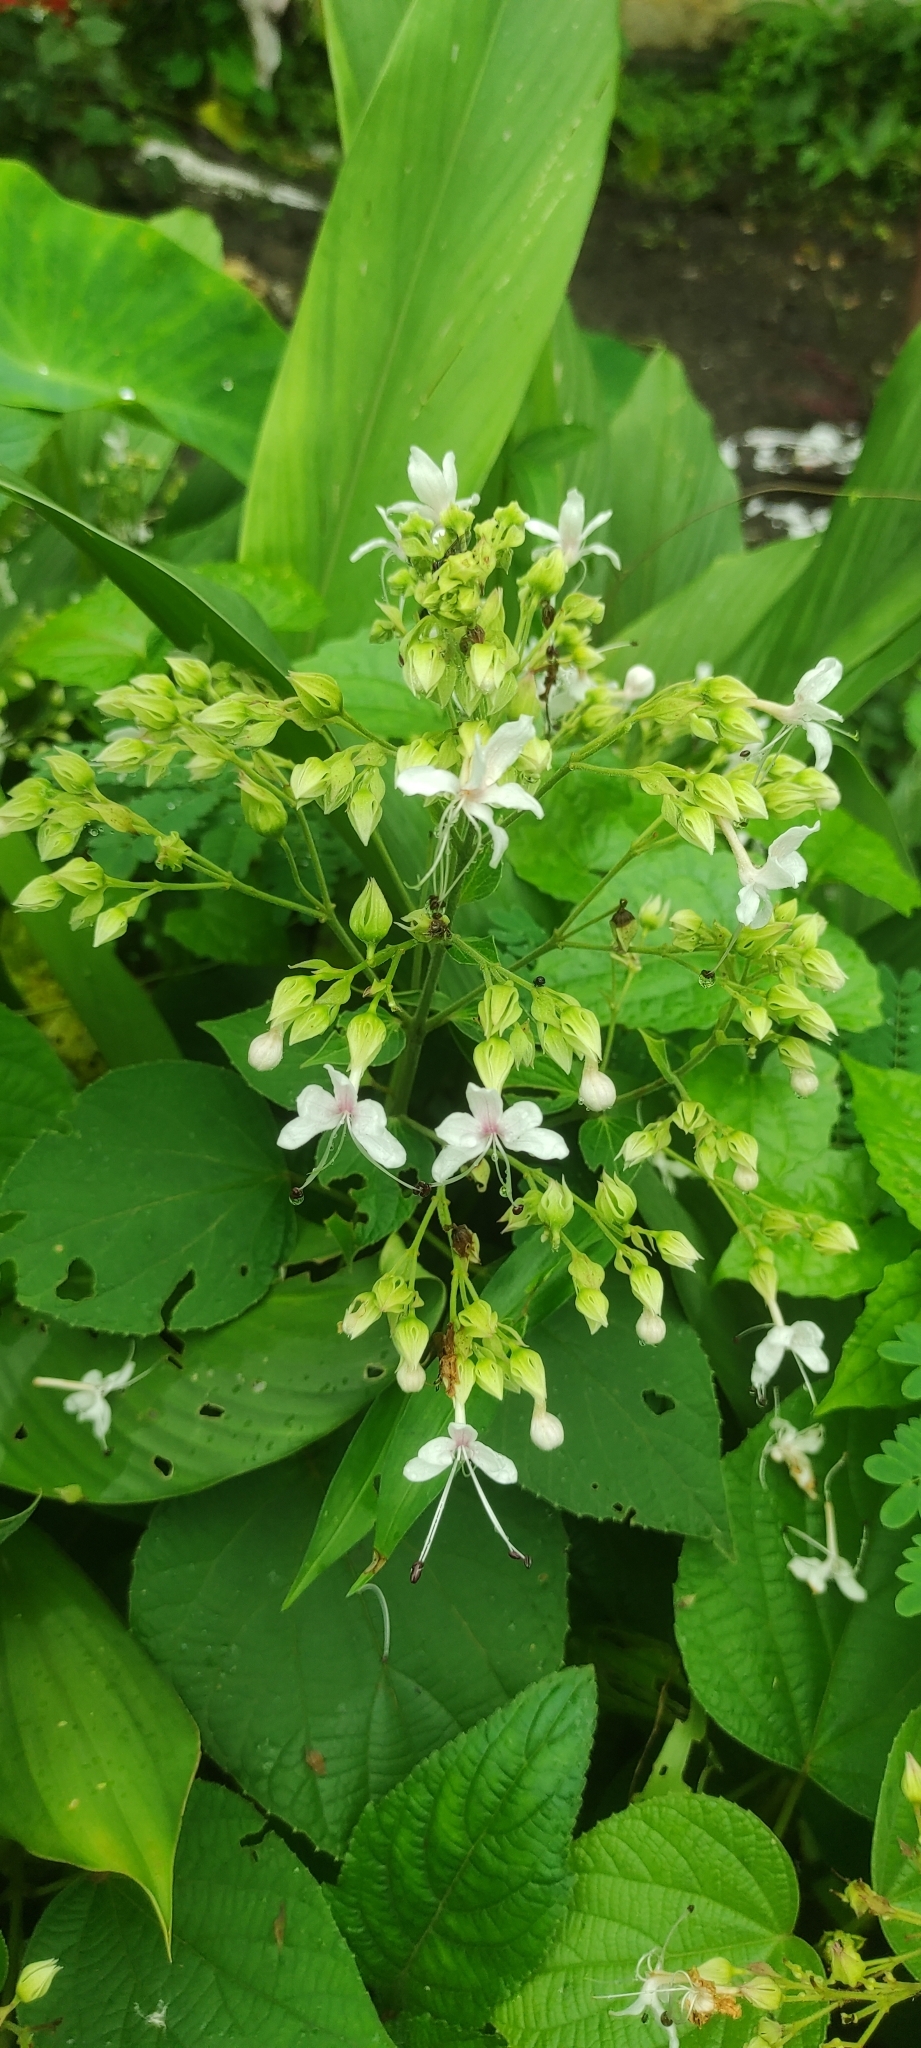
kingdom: Plantae
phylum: Tracheophyta
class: Magnoliopsida
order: Lamiales
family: Lamiaceae
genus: Clerodendrum
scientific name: Clerodendrum infortunatum
